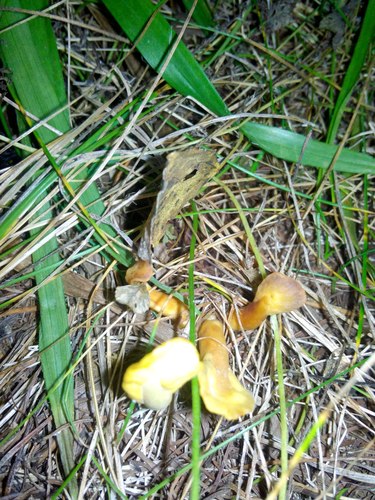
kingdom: Fungi
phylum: Ascomycota
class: Leotiomycetes
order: Rhytismatales
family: Cudoniaceae
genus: Spathularia
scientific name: Spathularia flavida
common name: Yellow fan
